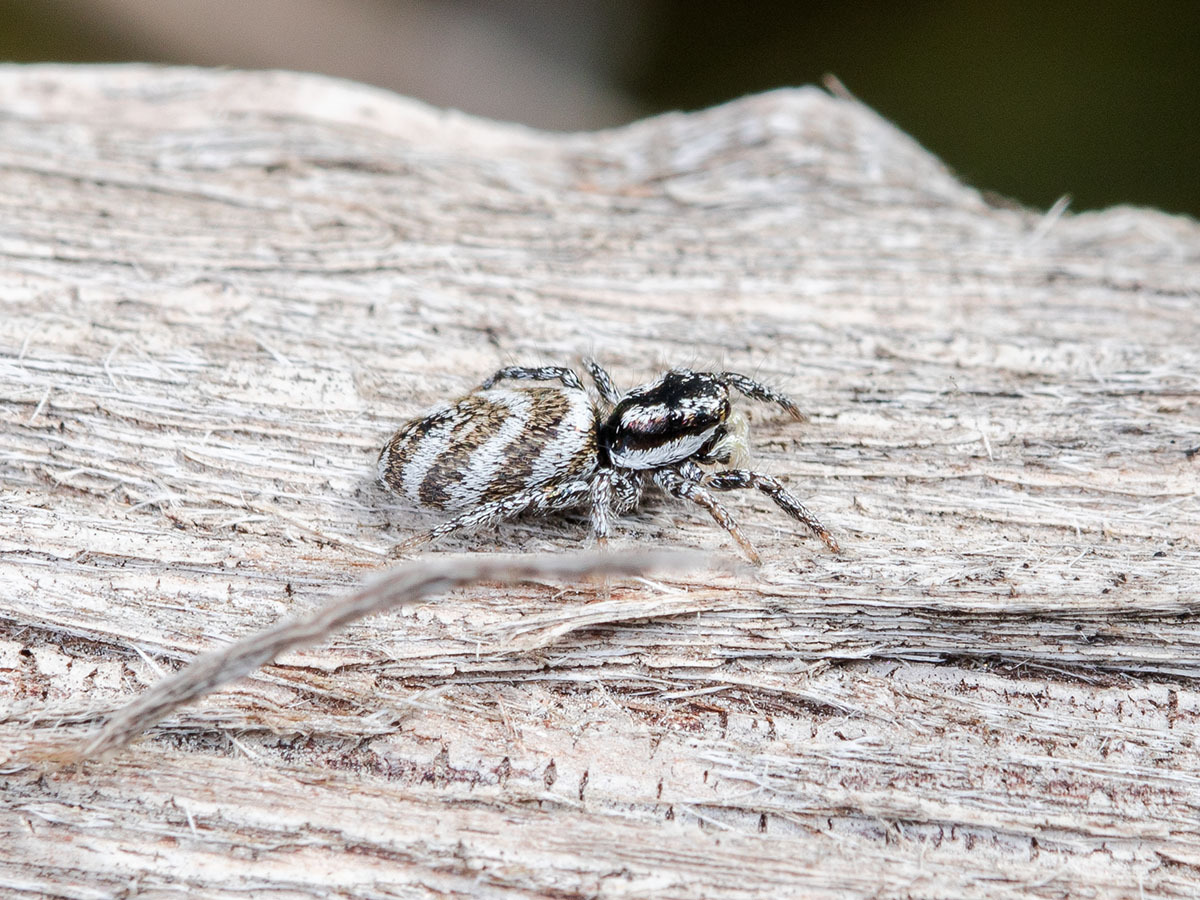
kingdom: Animalia
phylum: Arthropoda
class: Arachnida
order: Araneae
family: Salticidae
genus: Salticus
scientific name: Salticus tricinctus
